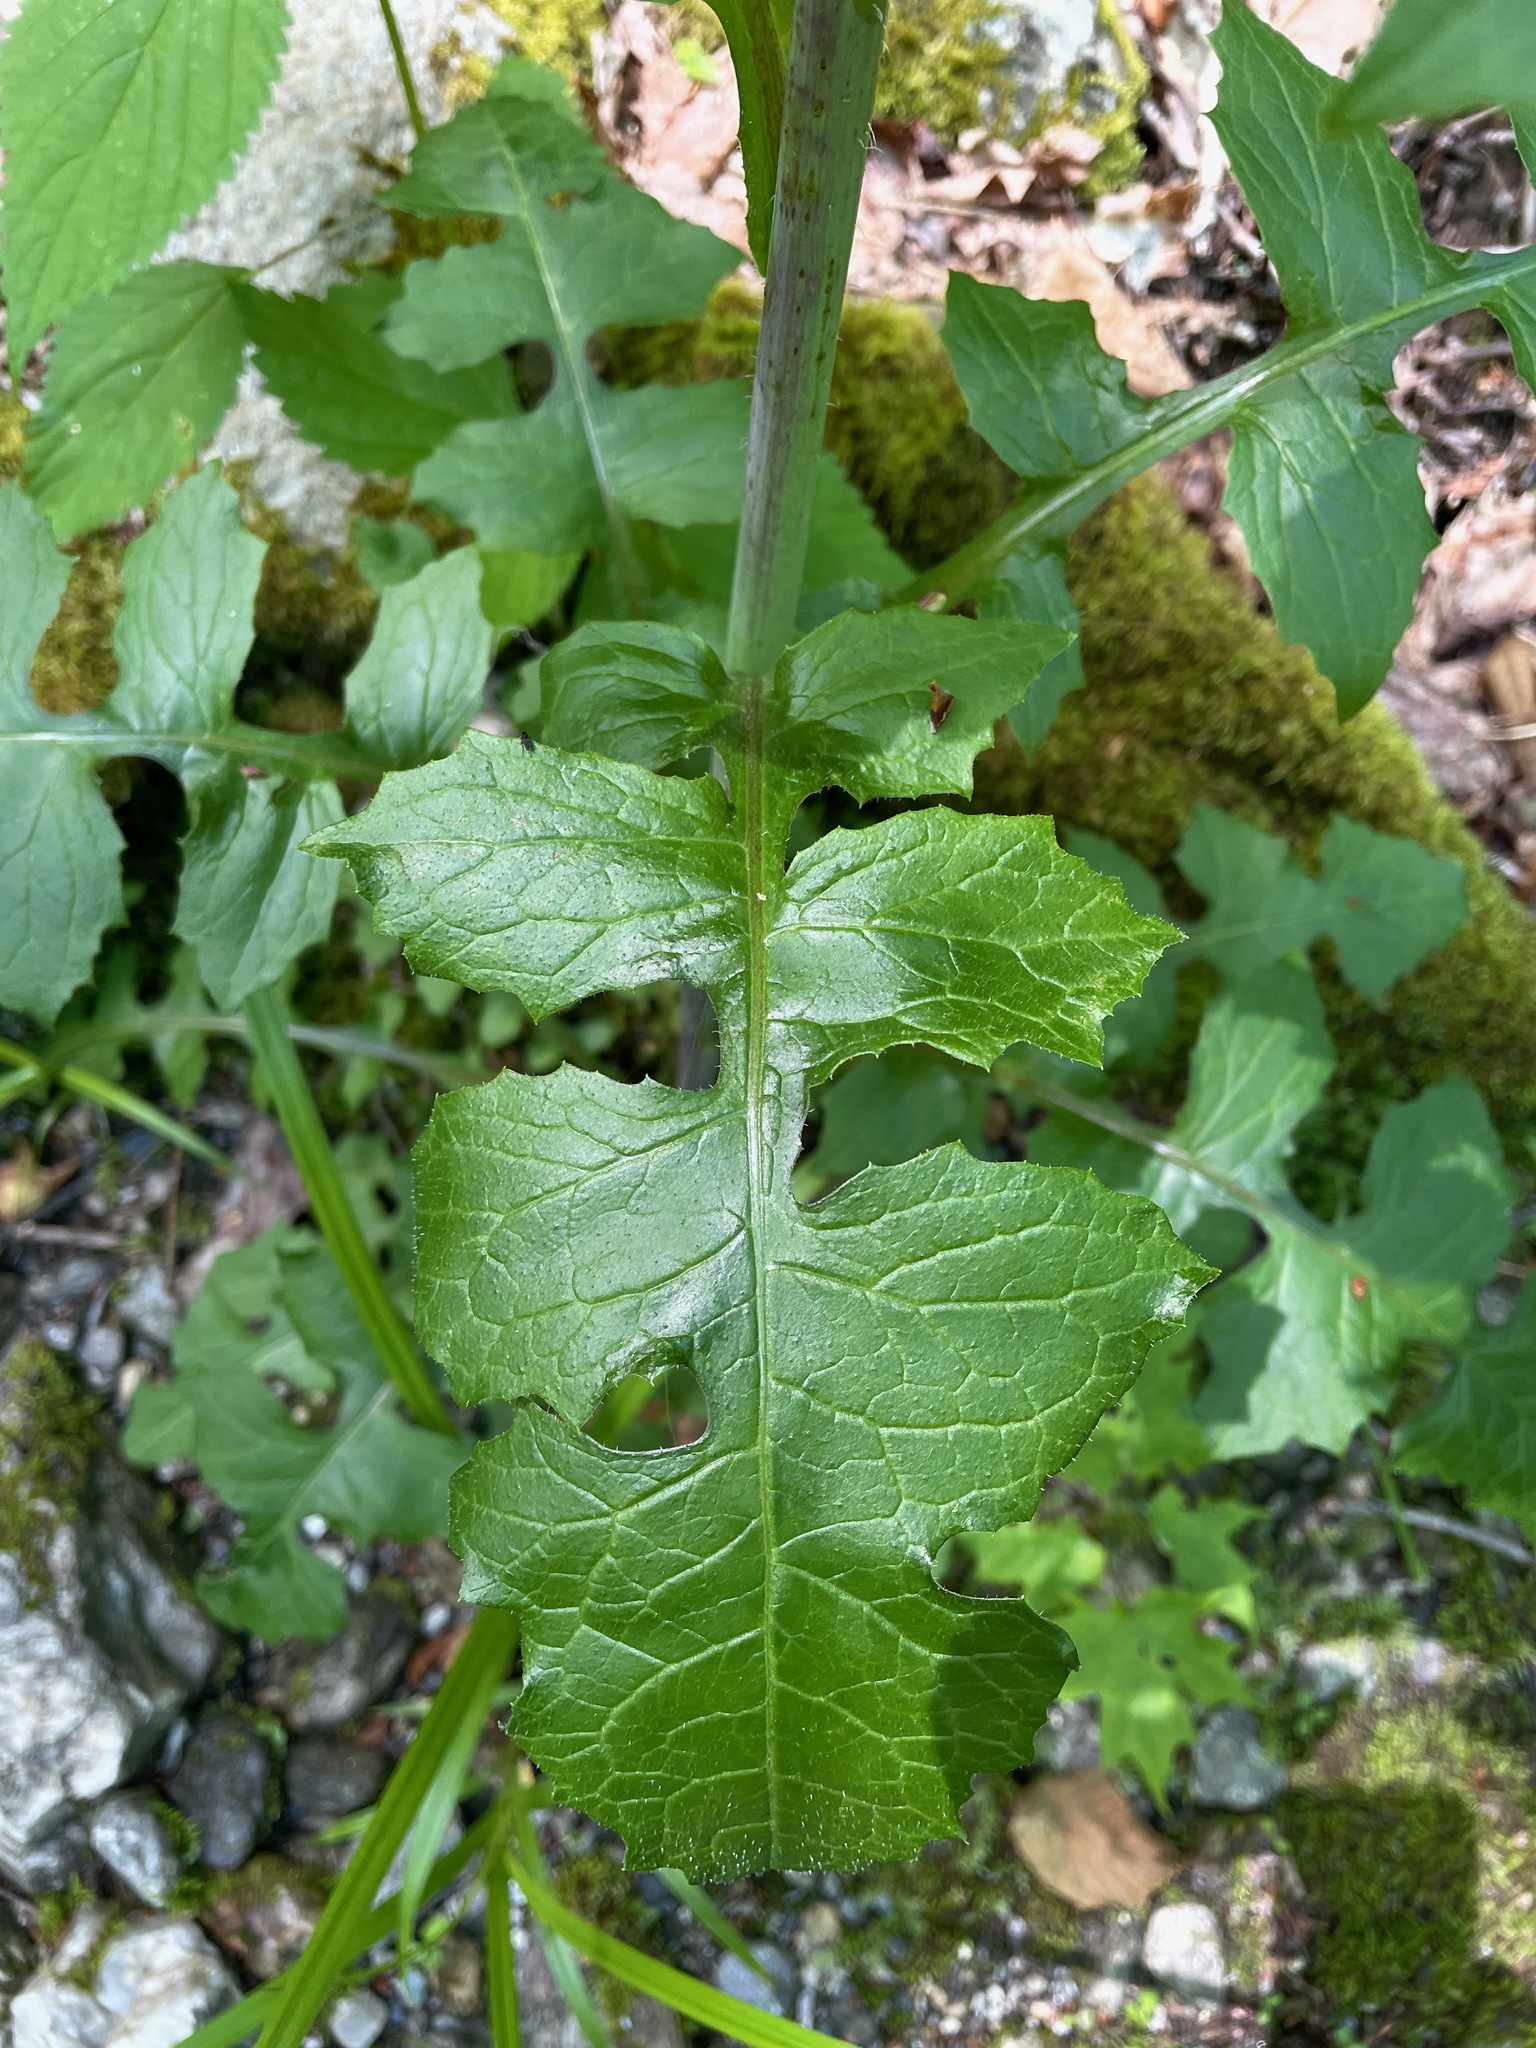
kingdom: Plantae
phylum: Tracheophyta
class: Magnoliopsida
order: Asterales
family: Asteraceae
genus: Lactuca
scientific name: Lactuca biennis
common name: Blue wood lettuce
